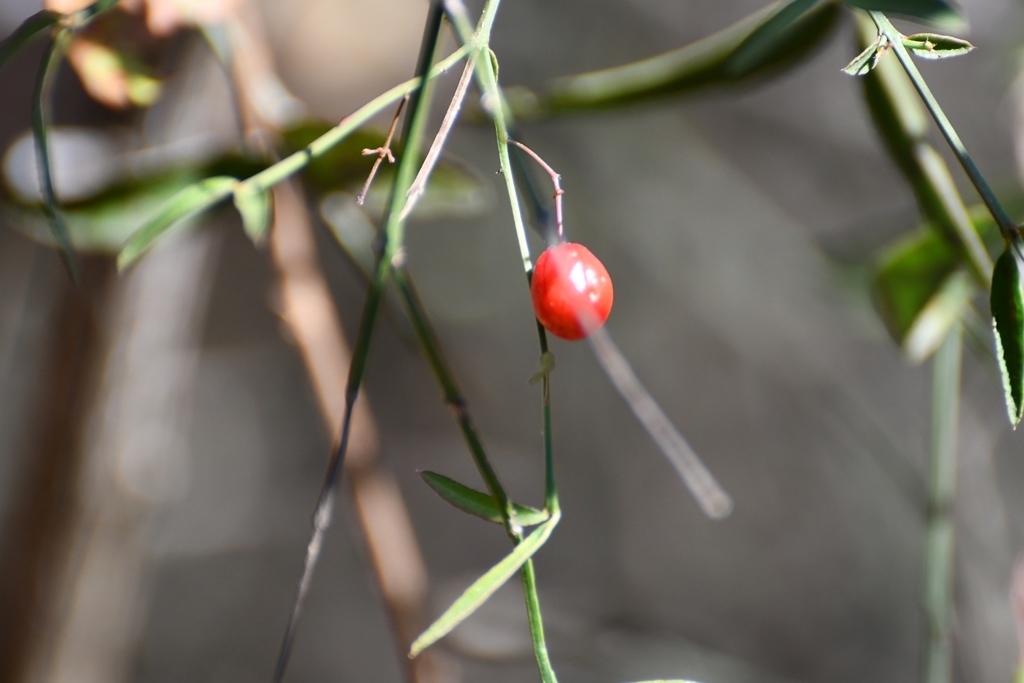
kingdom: Plantae
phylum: Tracheophyta
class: Magnoliopsida
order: Celastrales
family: Celastraceae
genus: Crossopetalum
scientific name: Crossopetalum uragoga
